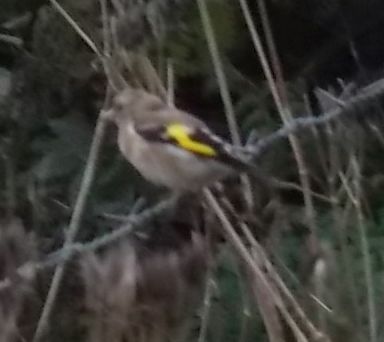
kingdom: Animalia
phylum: Chordata
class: Aves
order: Passeriformes
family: Fringillidae
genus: Carduelis
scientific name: Carduelis carduelis
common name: European goldfinch
